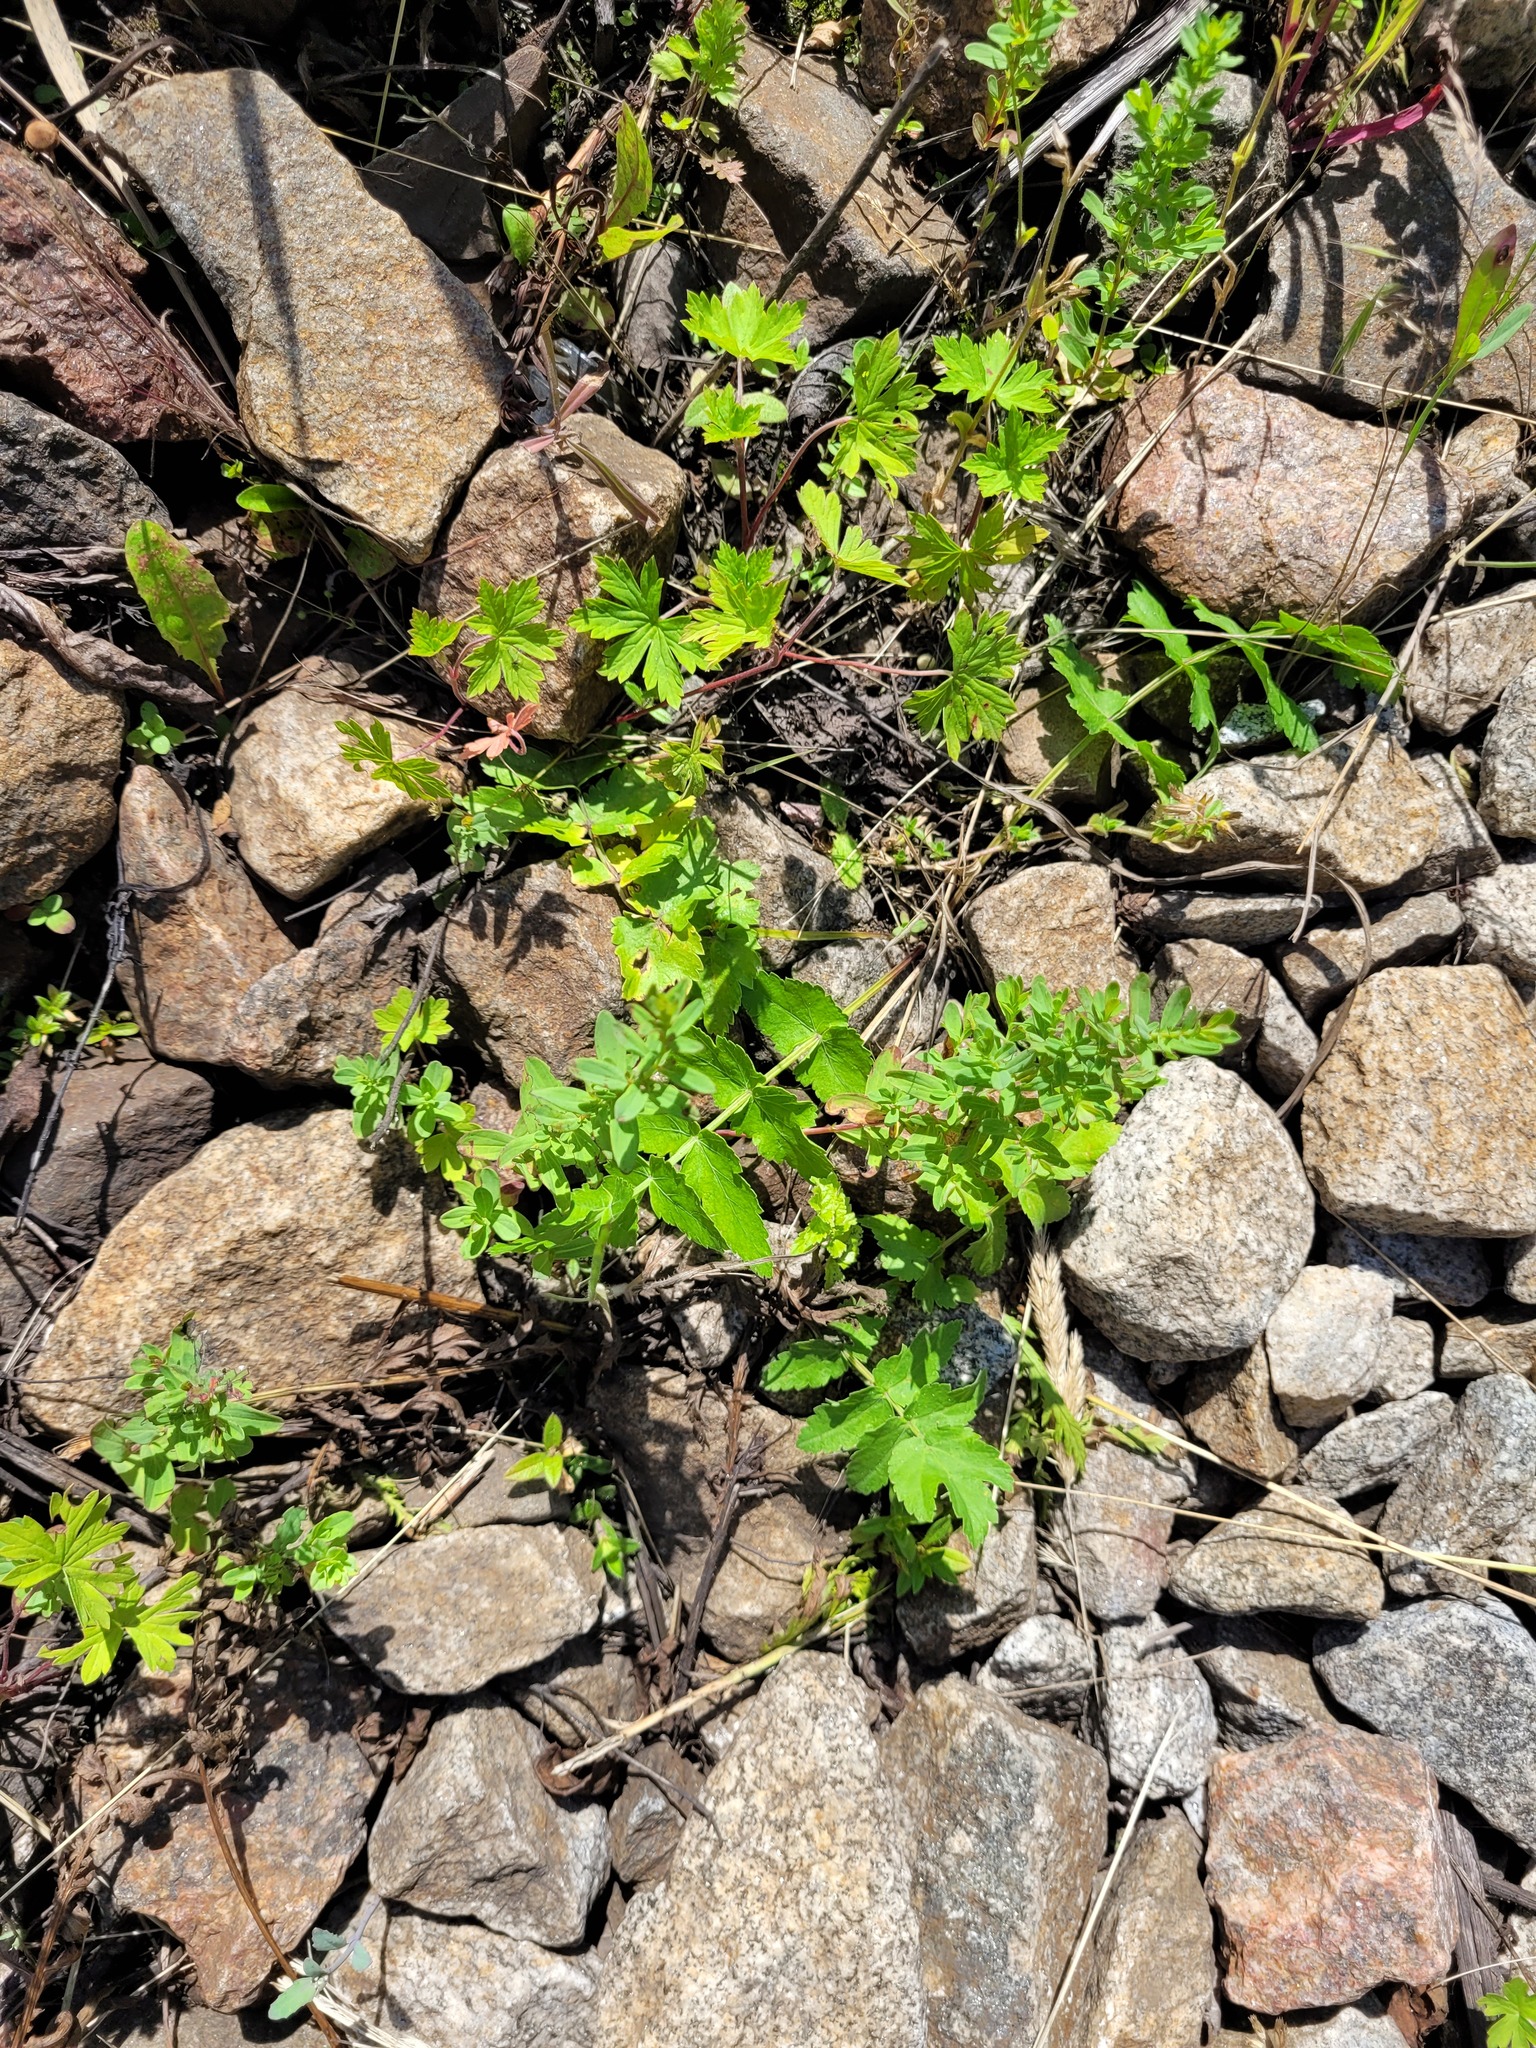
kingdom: Plantae
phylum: Tracheophyta
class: Magnoliopsida
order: Malpighiales
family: Hypericaceae
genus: Hypericum
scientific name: Hypericum perforatum
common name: Common st. johnswort
